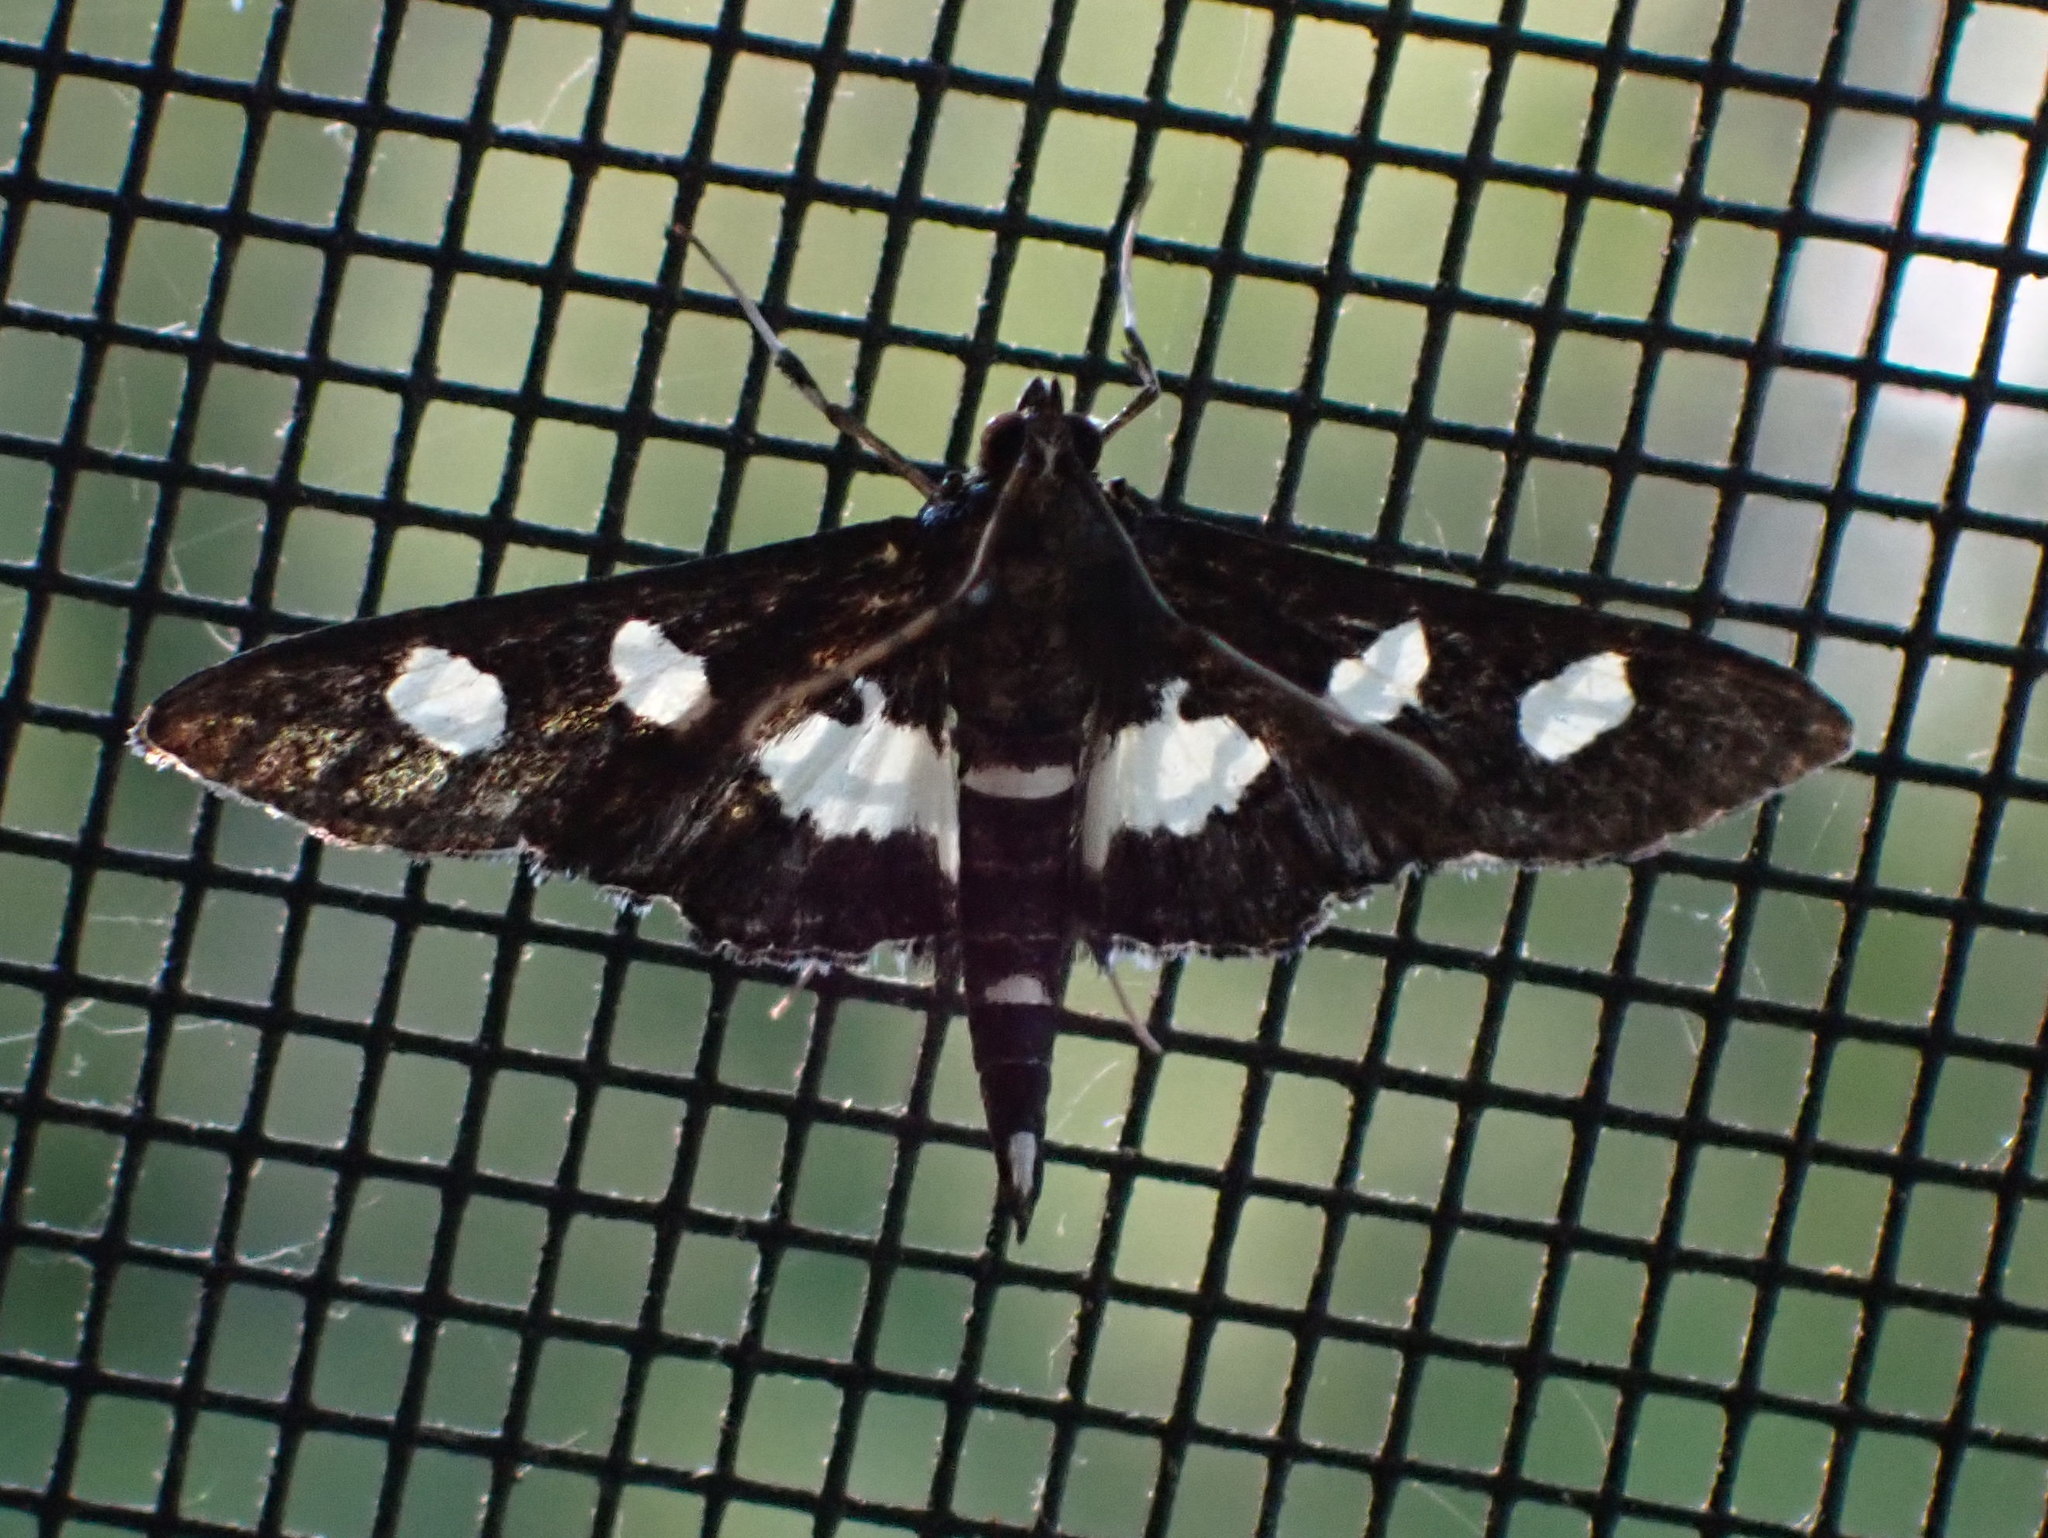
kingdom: Animalia
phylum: Arthropoda
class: Insecta
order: Lepidoptera
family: Crambidae
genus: Desmia
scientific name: Desmia funeralis
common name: Grape leaf folder moth
